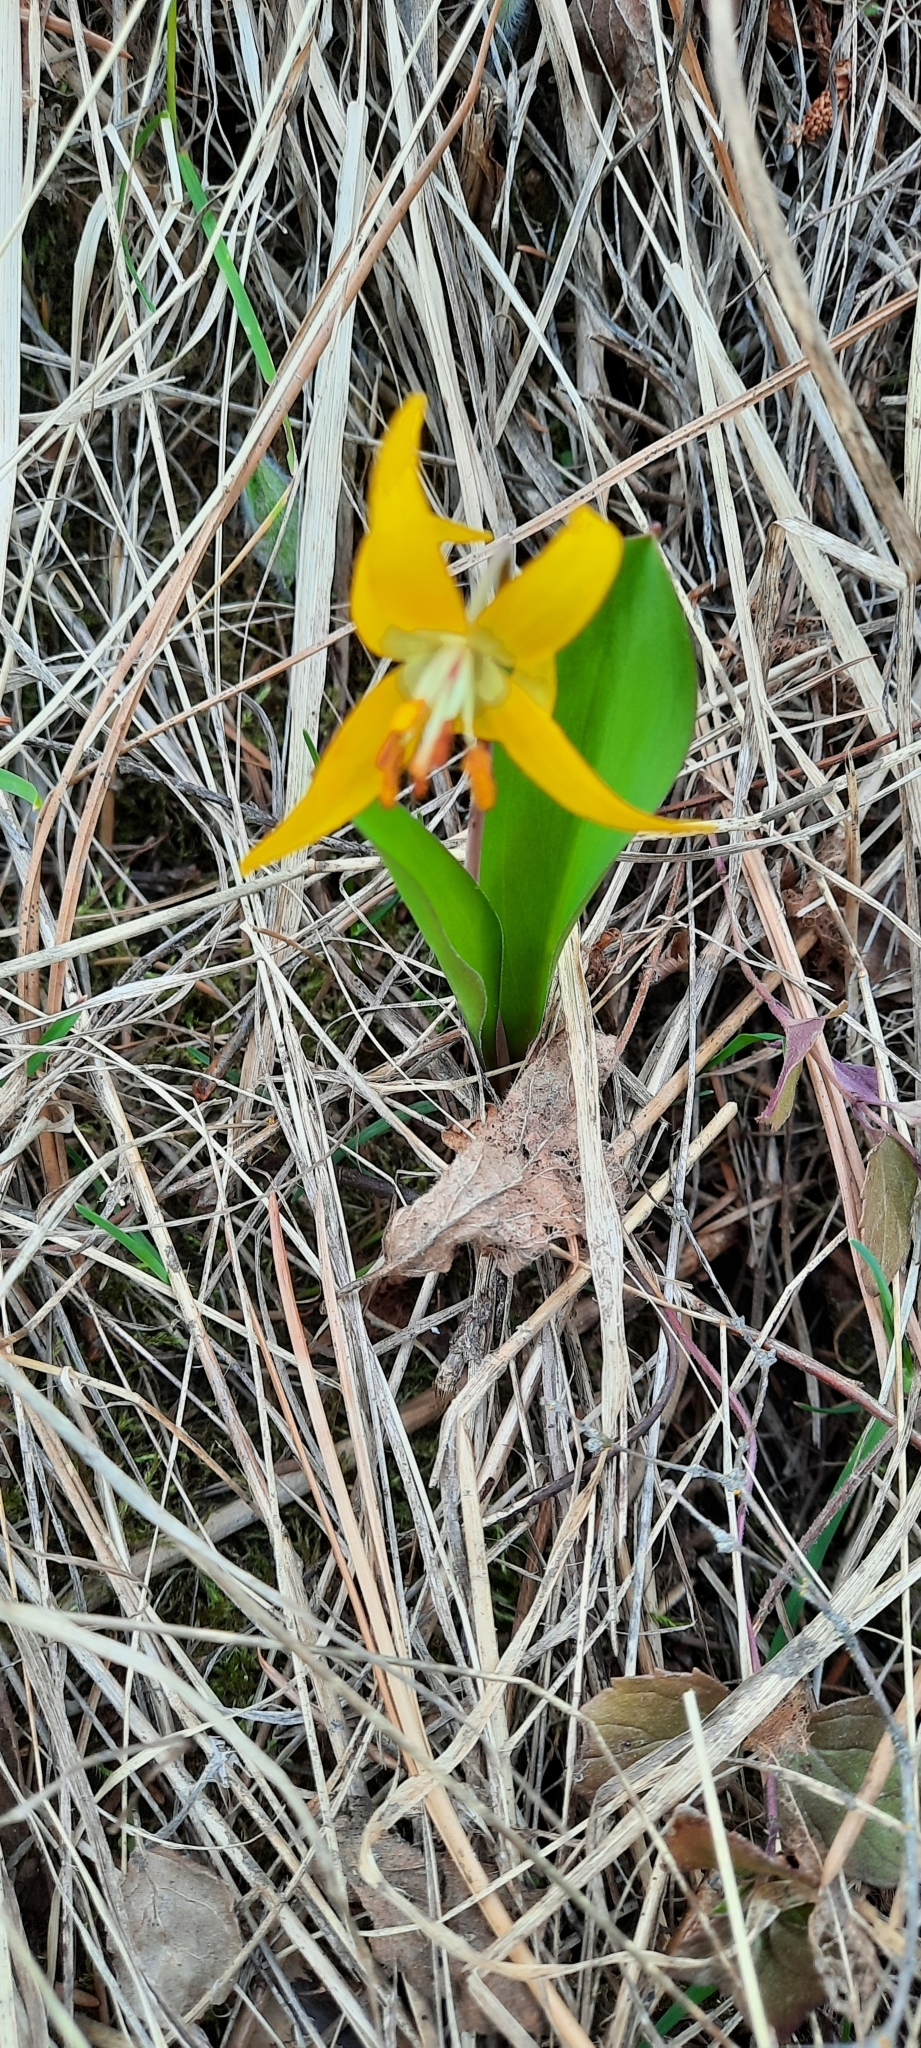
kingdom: Plantae
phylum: Tracheophyta
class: Liliopsida
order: Liliales
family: Liliaceae
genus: Erythronium
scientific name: Erythronium grandiflorum
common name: Avalanche-lily
